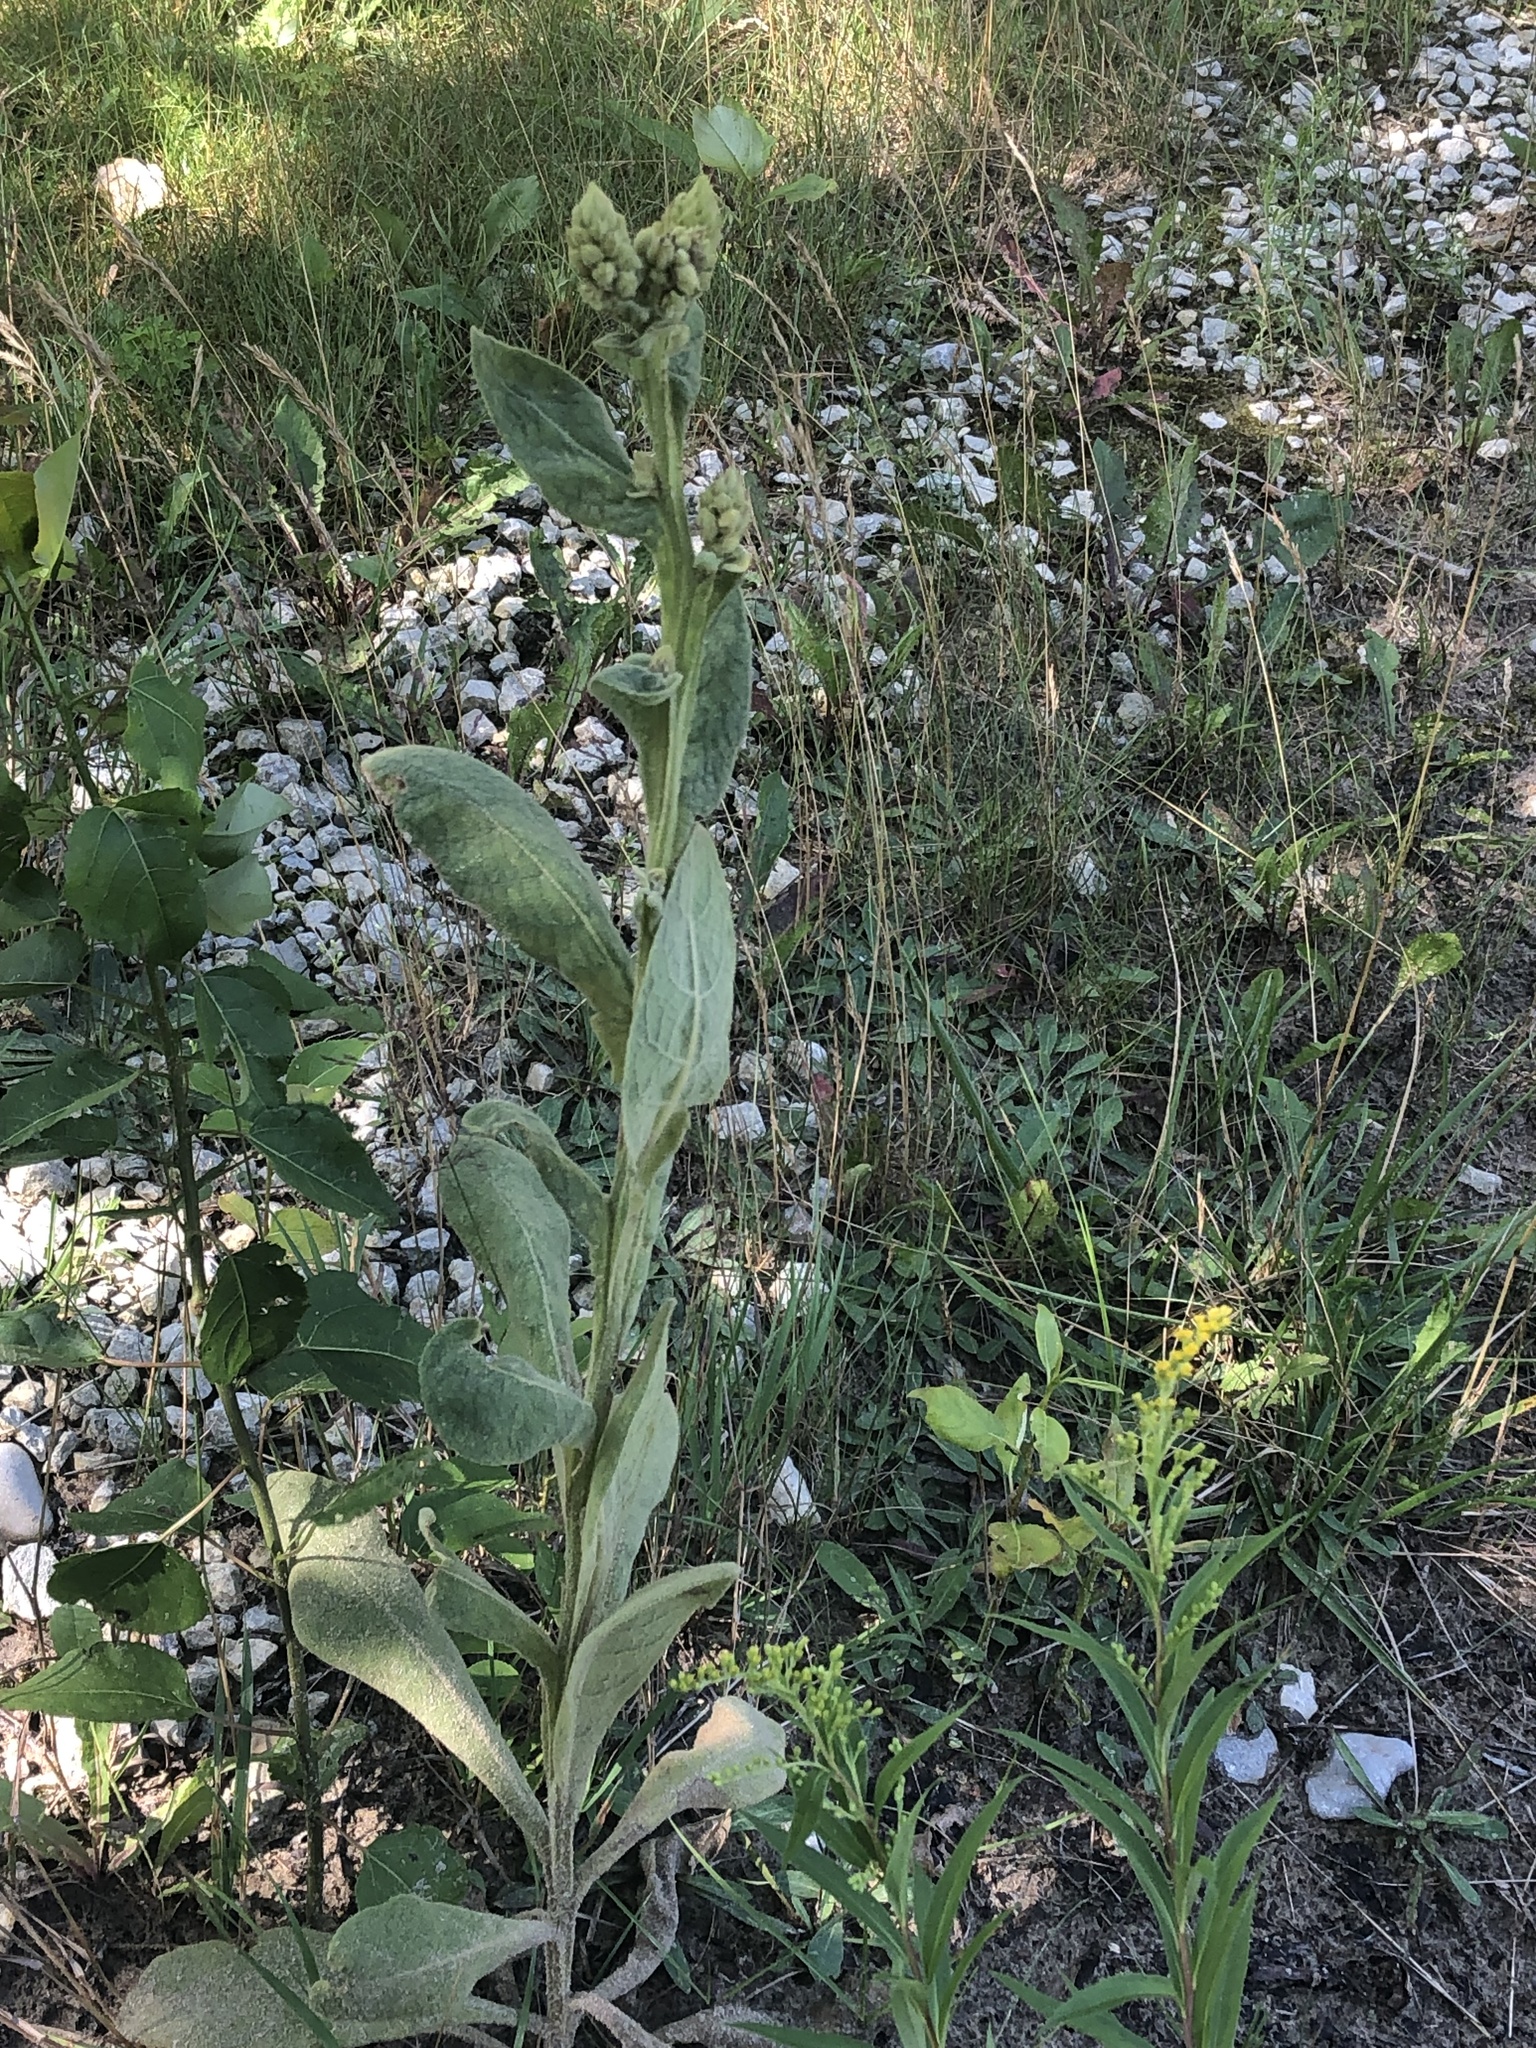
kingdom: Plantae
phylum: Tracheophyta
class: Magnoliopsida
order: Lamiales
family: Scrophulariaceae
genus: Verbascum
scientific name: Verbascum thapsus
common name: Common mullein
